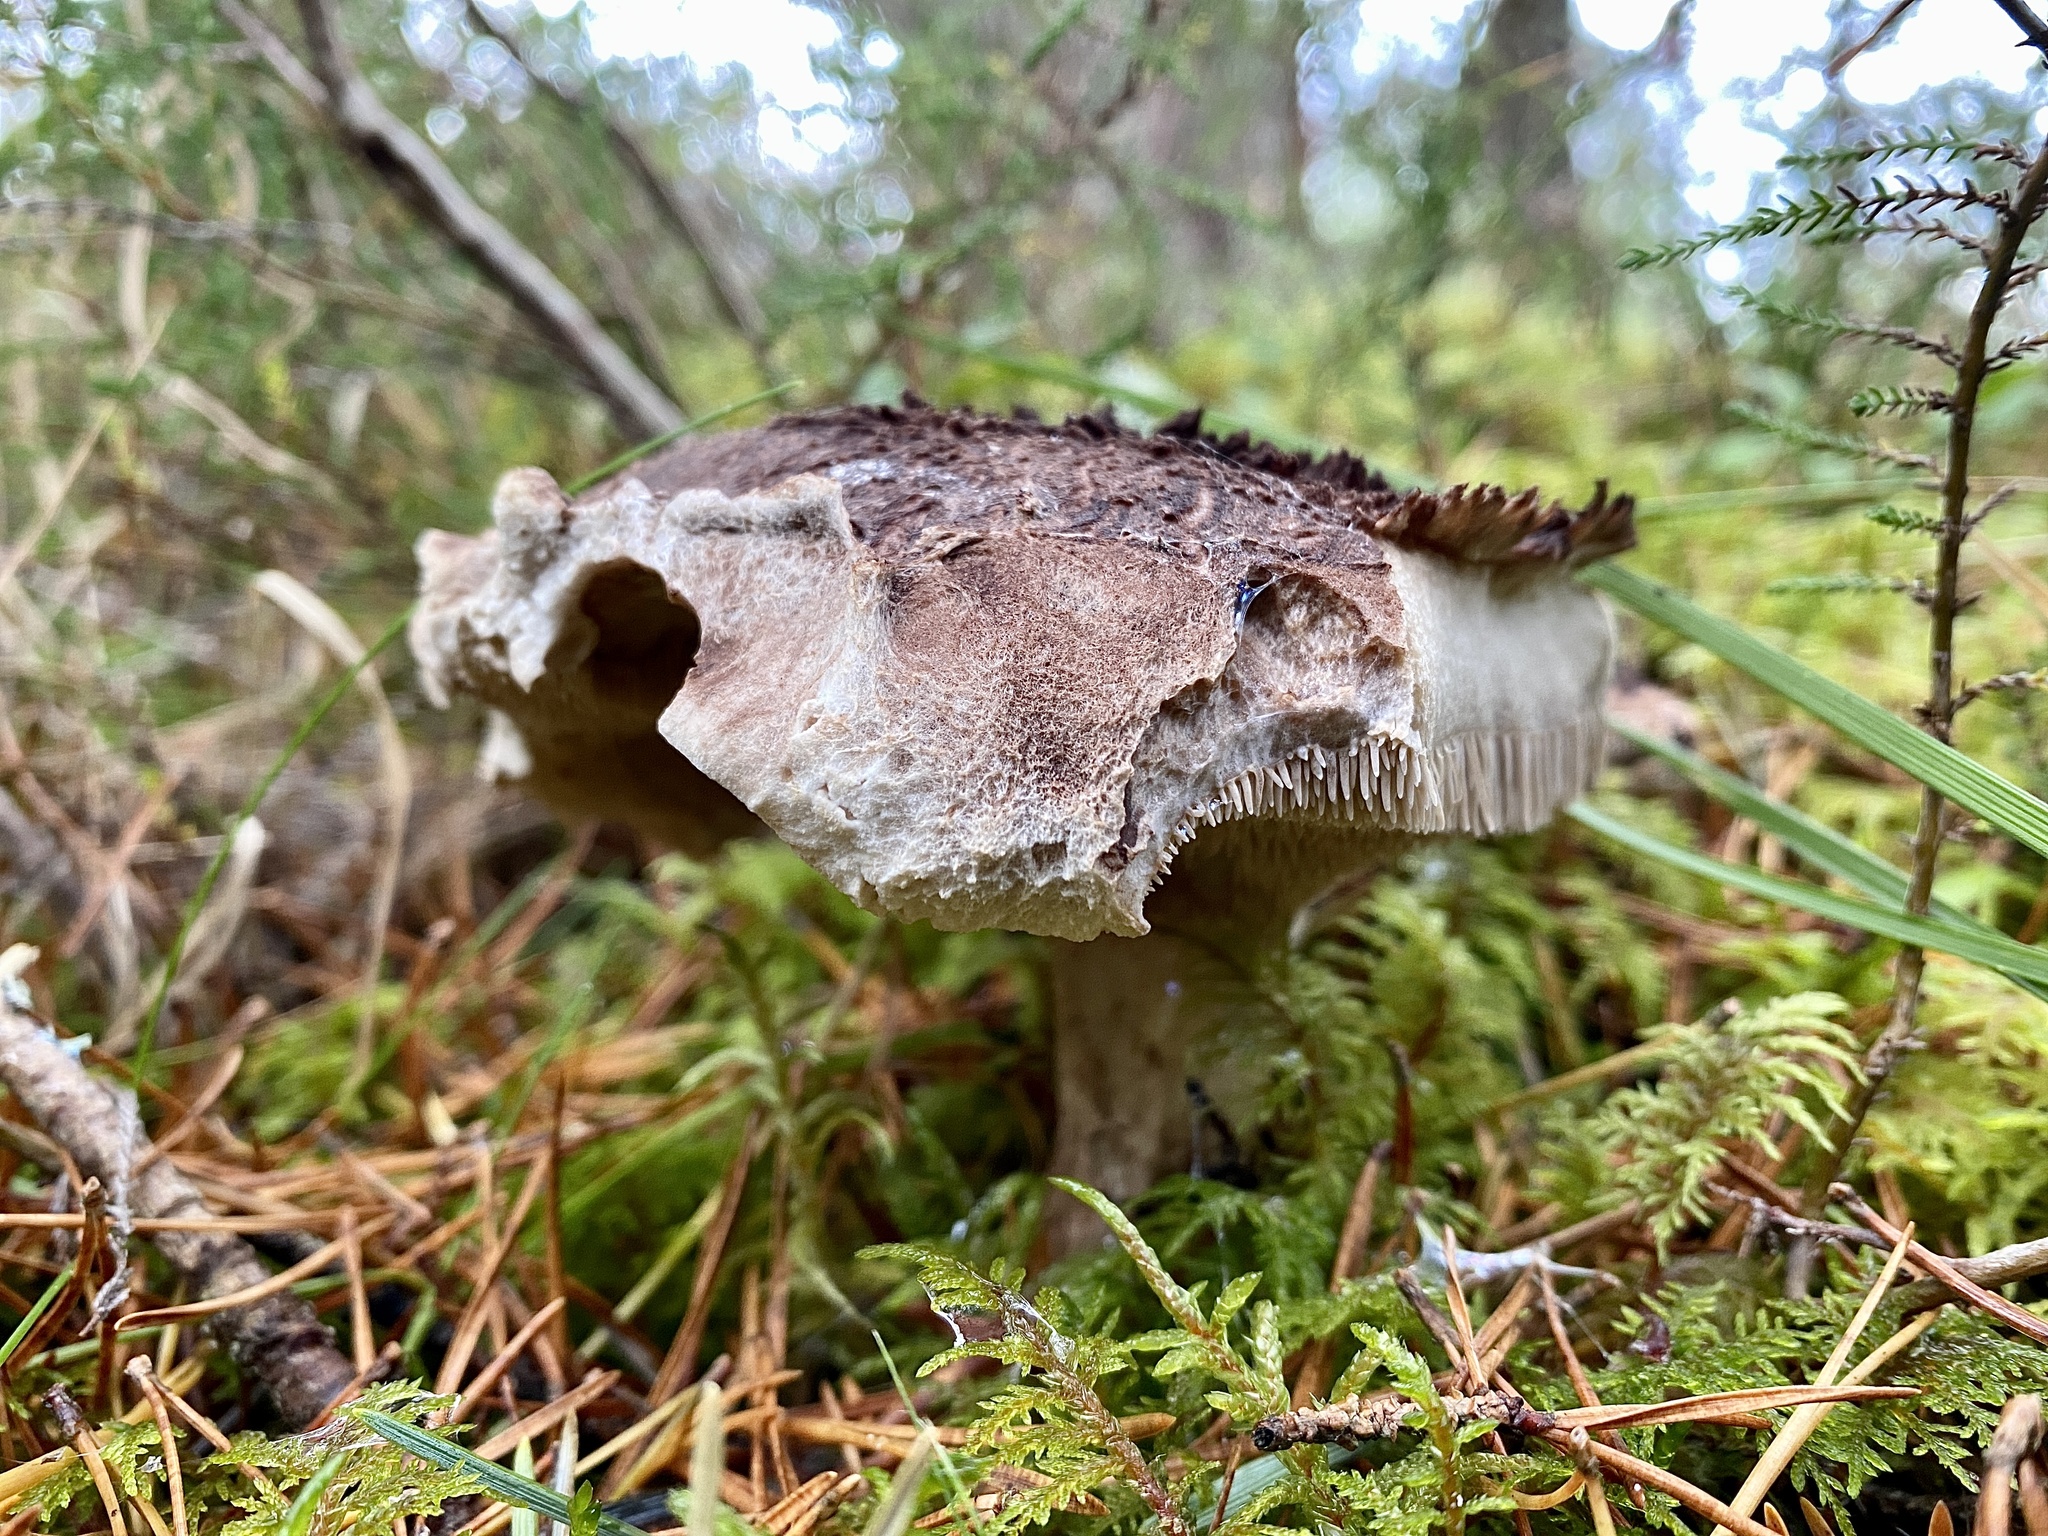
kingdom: Fungi
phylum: Basidiomycota
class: Agaricomycetes
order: Thelephorales
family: Bankeraceae
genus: Sarcodon
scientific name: Sarcodon squamosus
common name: Scaly tooth
